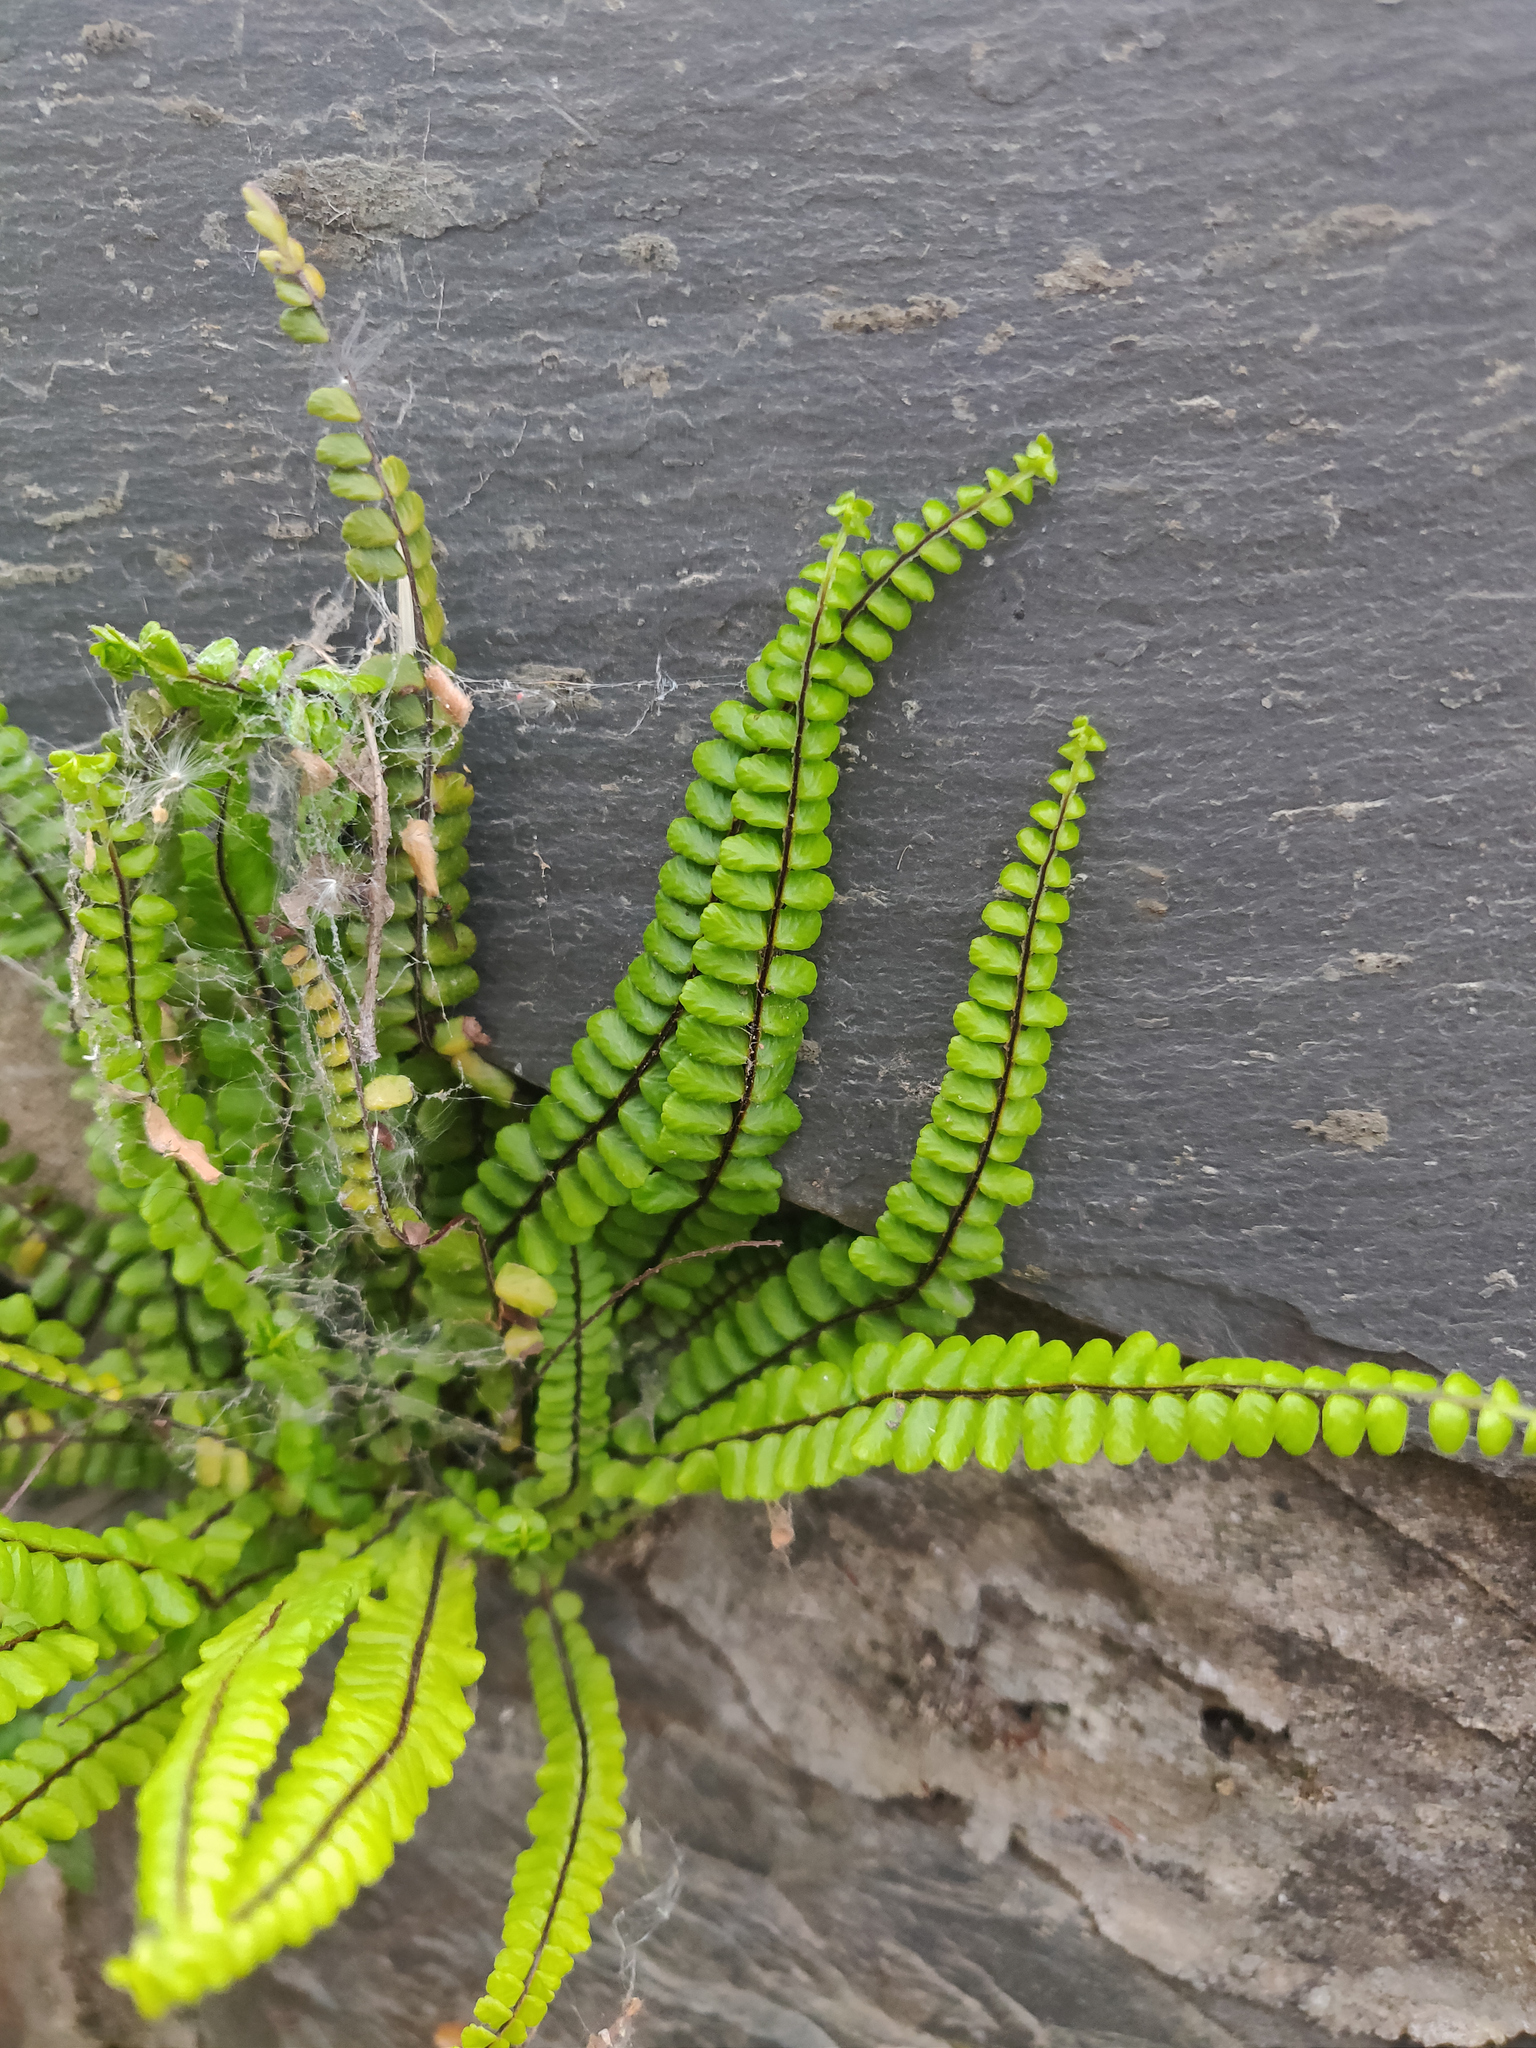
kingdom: Plantae
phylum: Tracheophyta
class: Polypodiopsida
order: Polypodiales
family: Aspleniaceae
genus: Asplenium
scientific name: Asplenium trichomanes
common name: Maidenhair spleenwort
